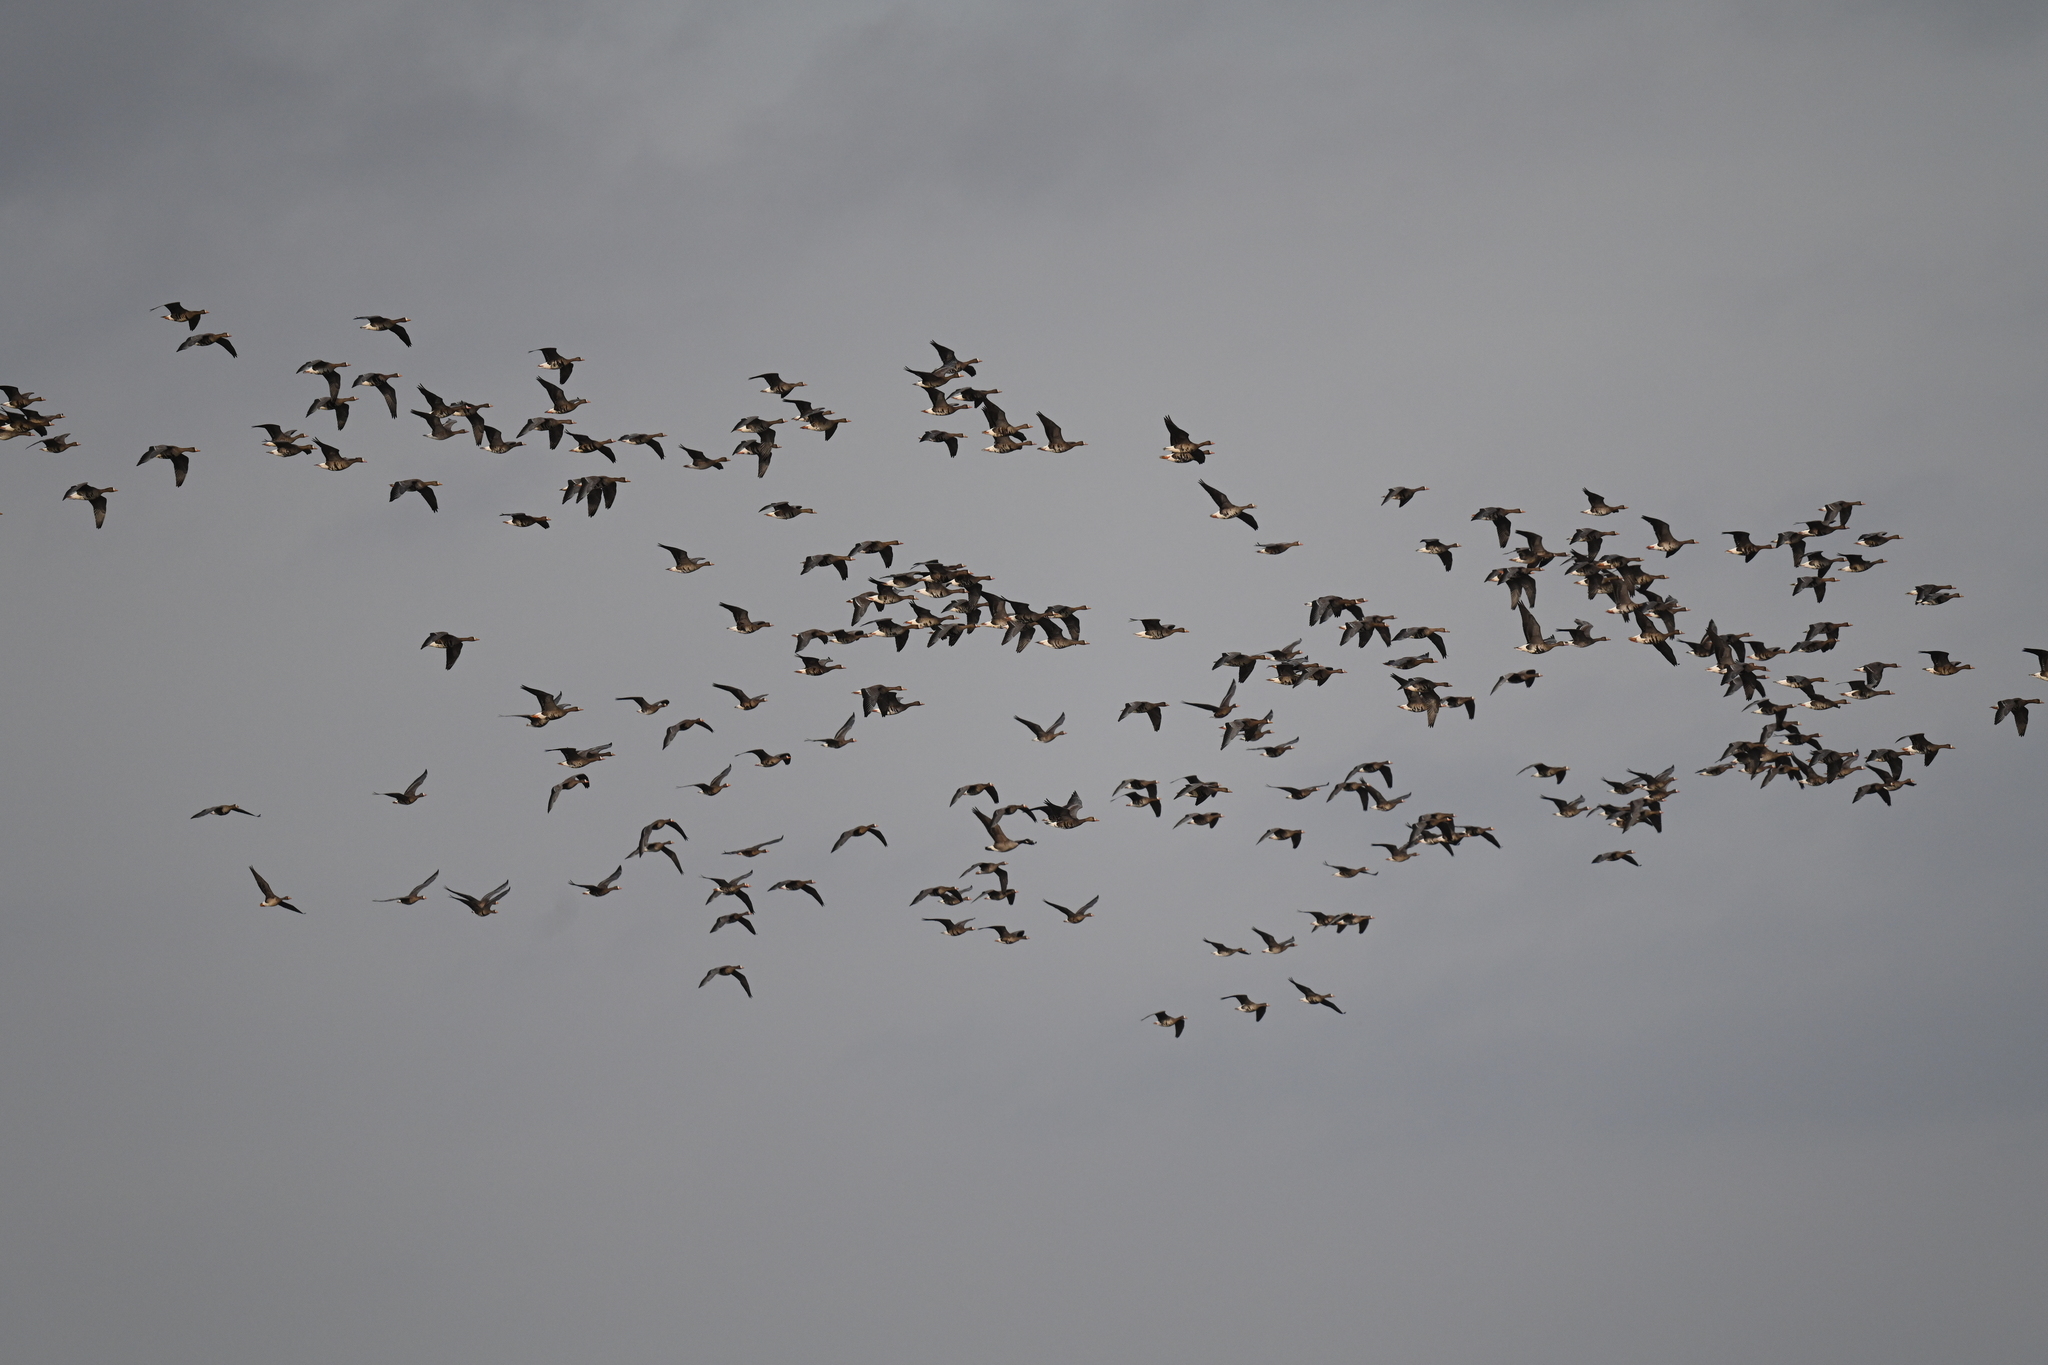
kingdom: Animalia
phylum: Chordata
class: Aves
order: Anseriformes
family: Anatidae
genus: Anser
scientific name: Anser albifrons
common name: Greater white-fronted goose
